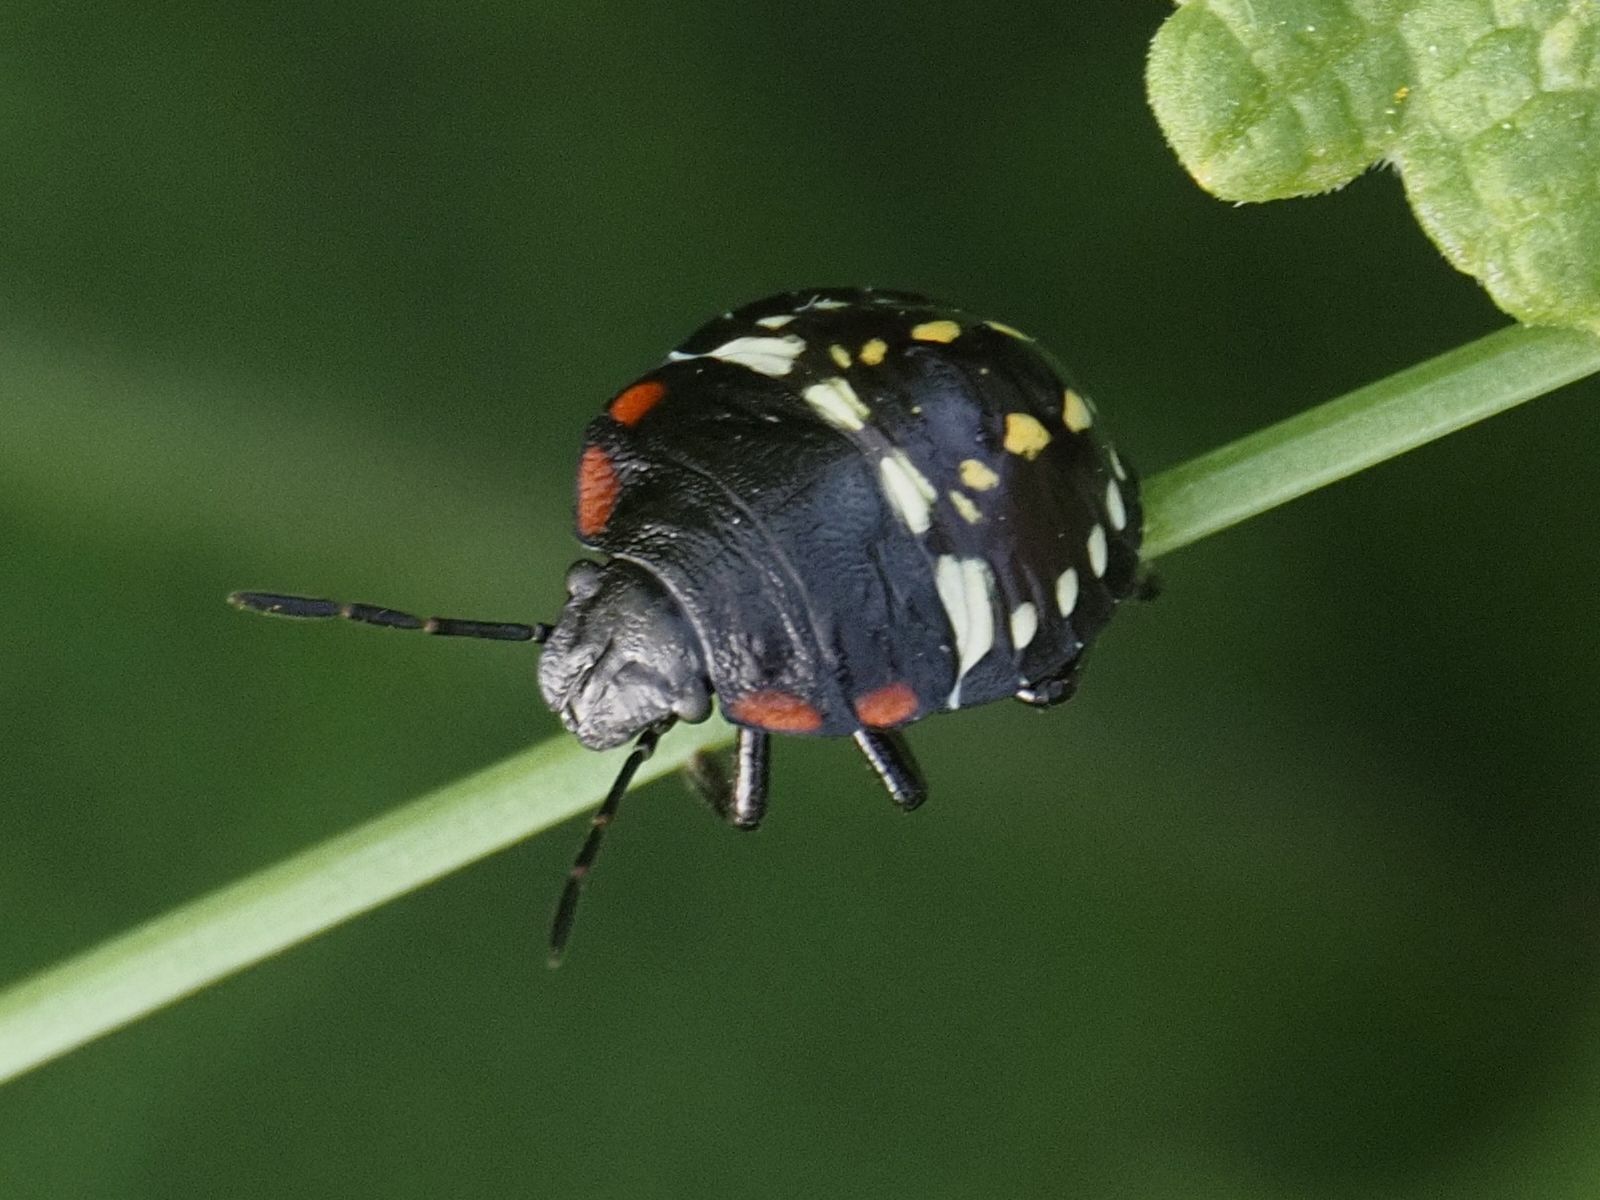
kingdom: Animalia
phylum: Arthropoda
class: Insecta
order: Hemiptera
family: Pentatomidae
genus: Nezara
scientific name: Nezara viridula
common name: Southern green stink bug
